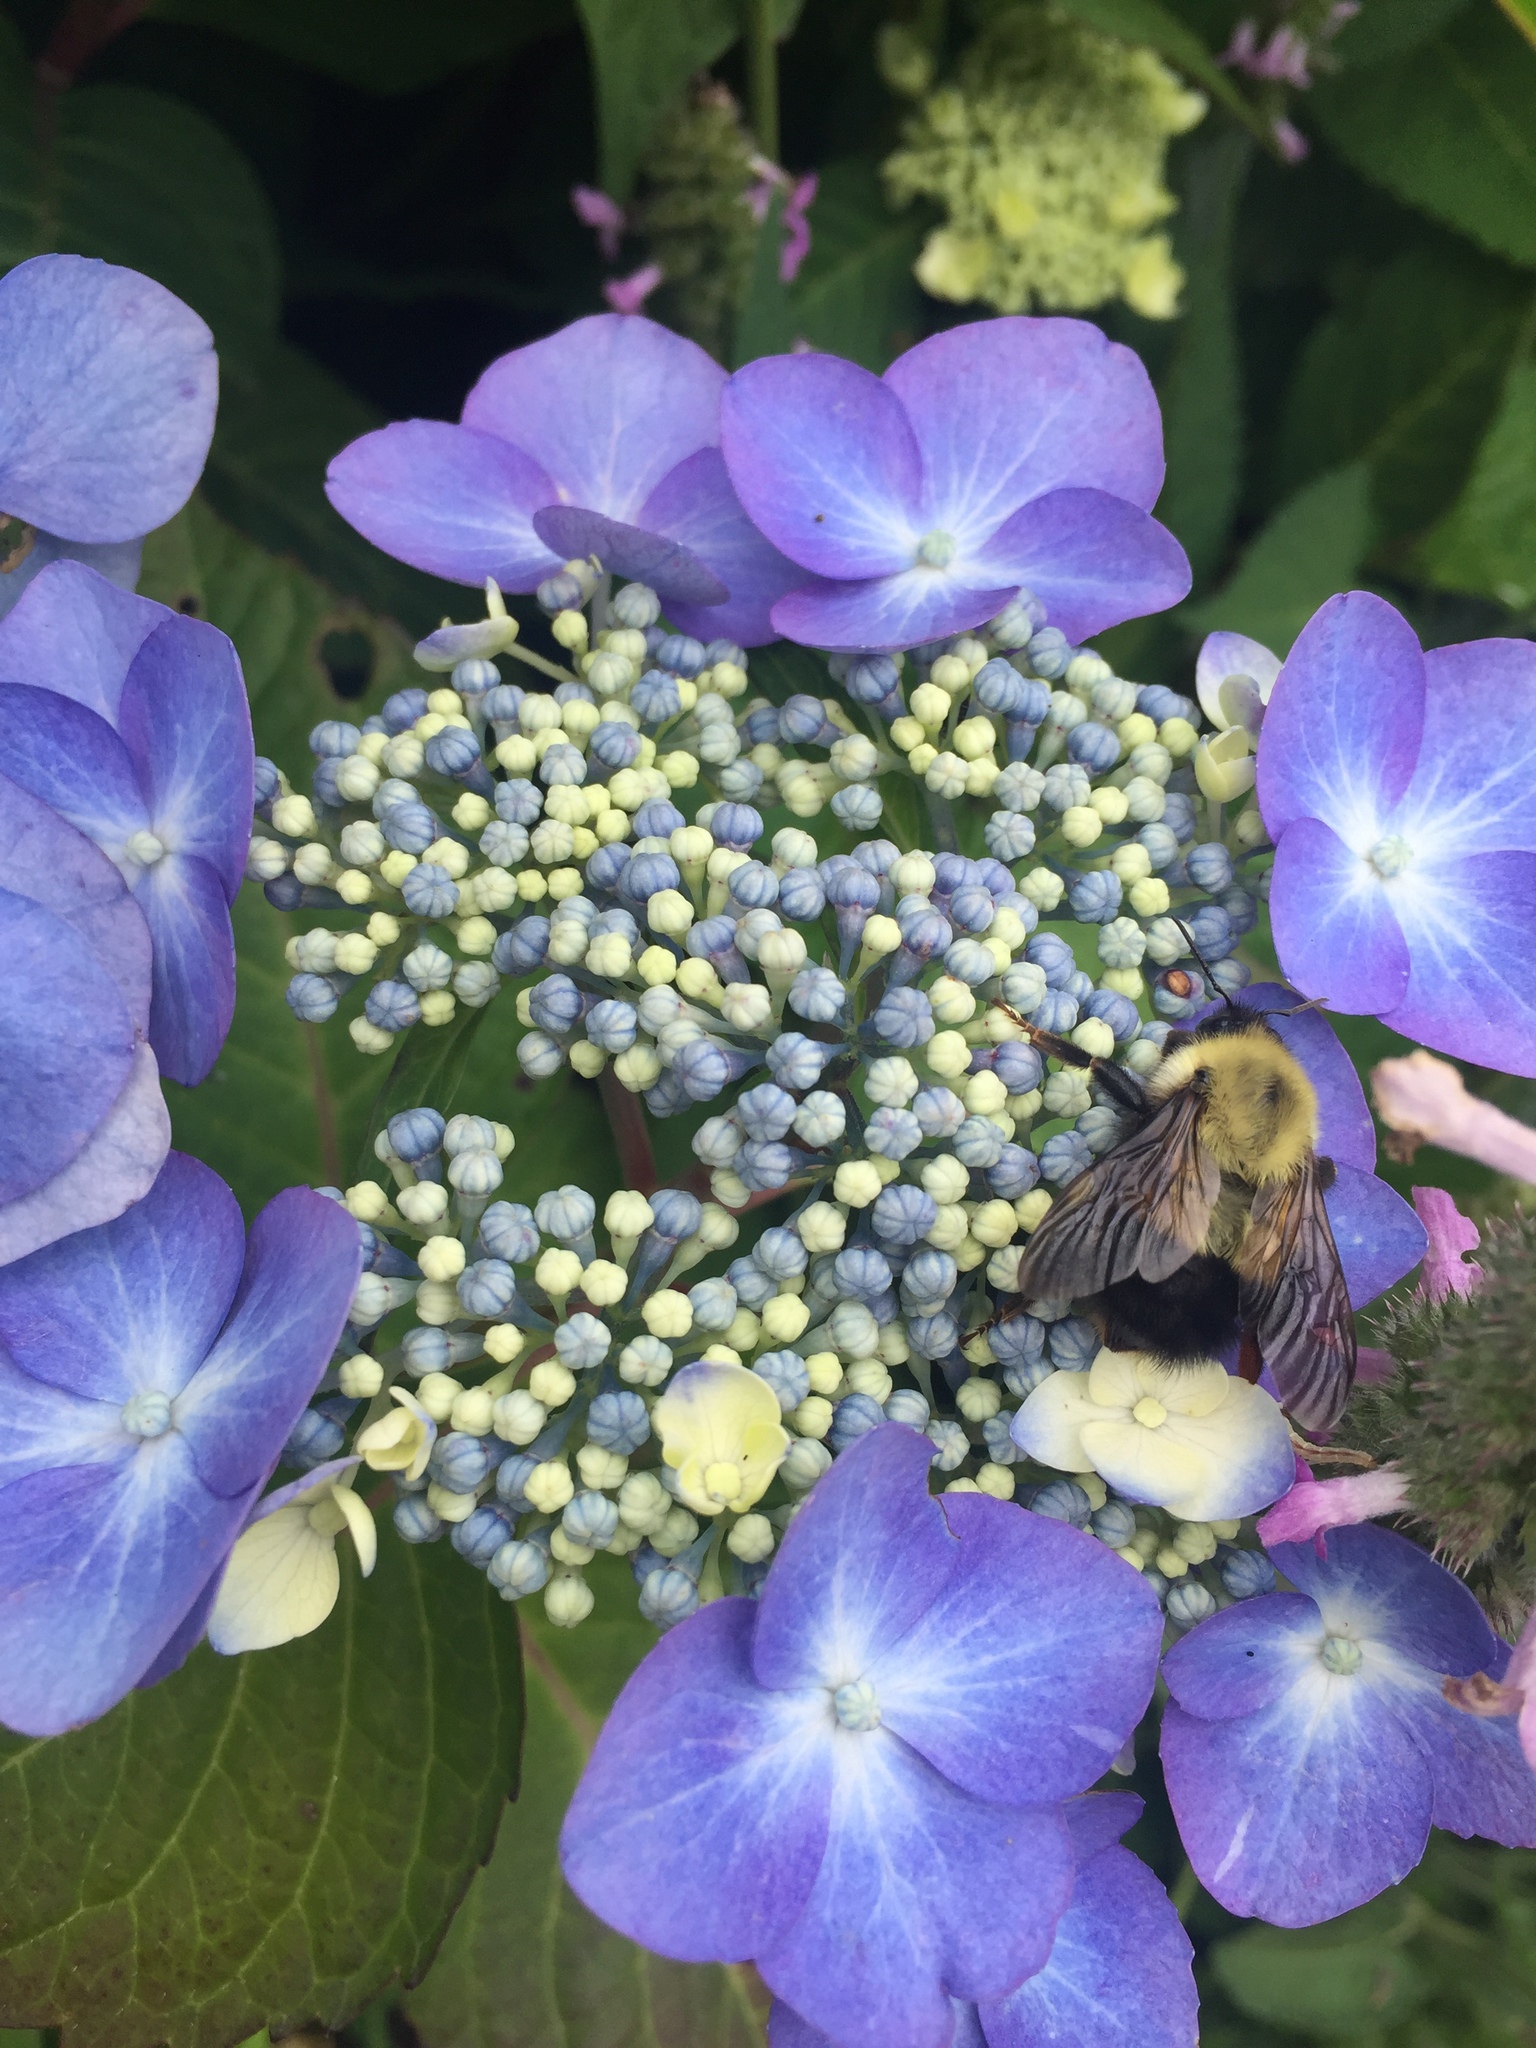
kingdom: Animalia
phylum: Arthropoda
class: Insecta
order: Hymenoptera
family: Apidae
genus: Pyrobombus
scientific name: Pyrobombus
